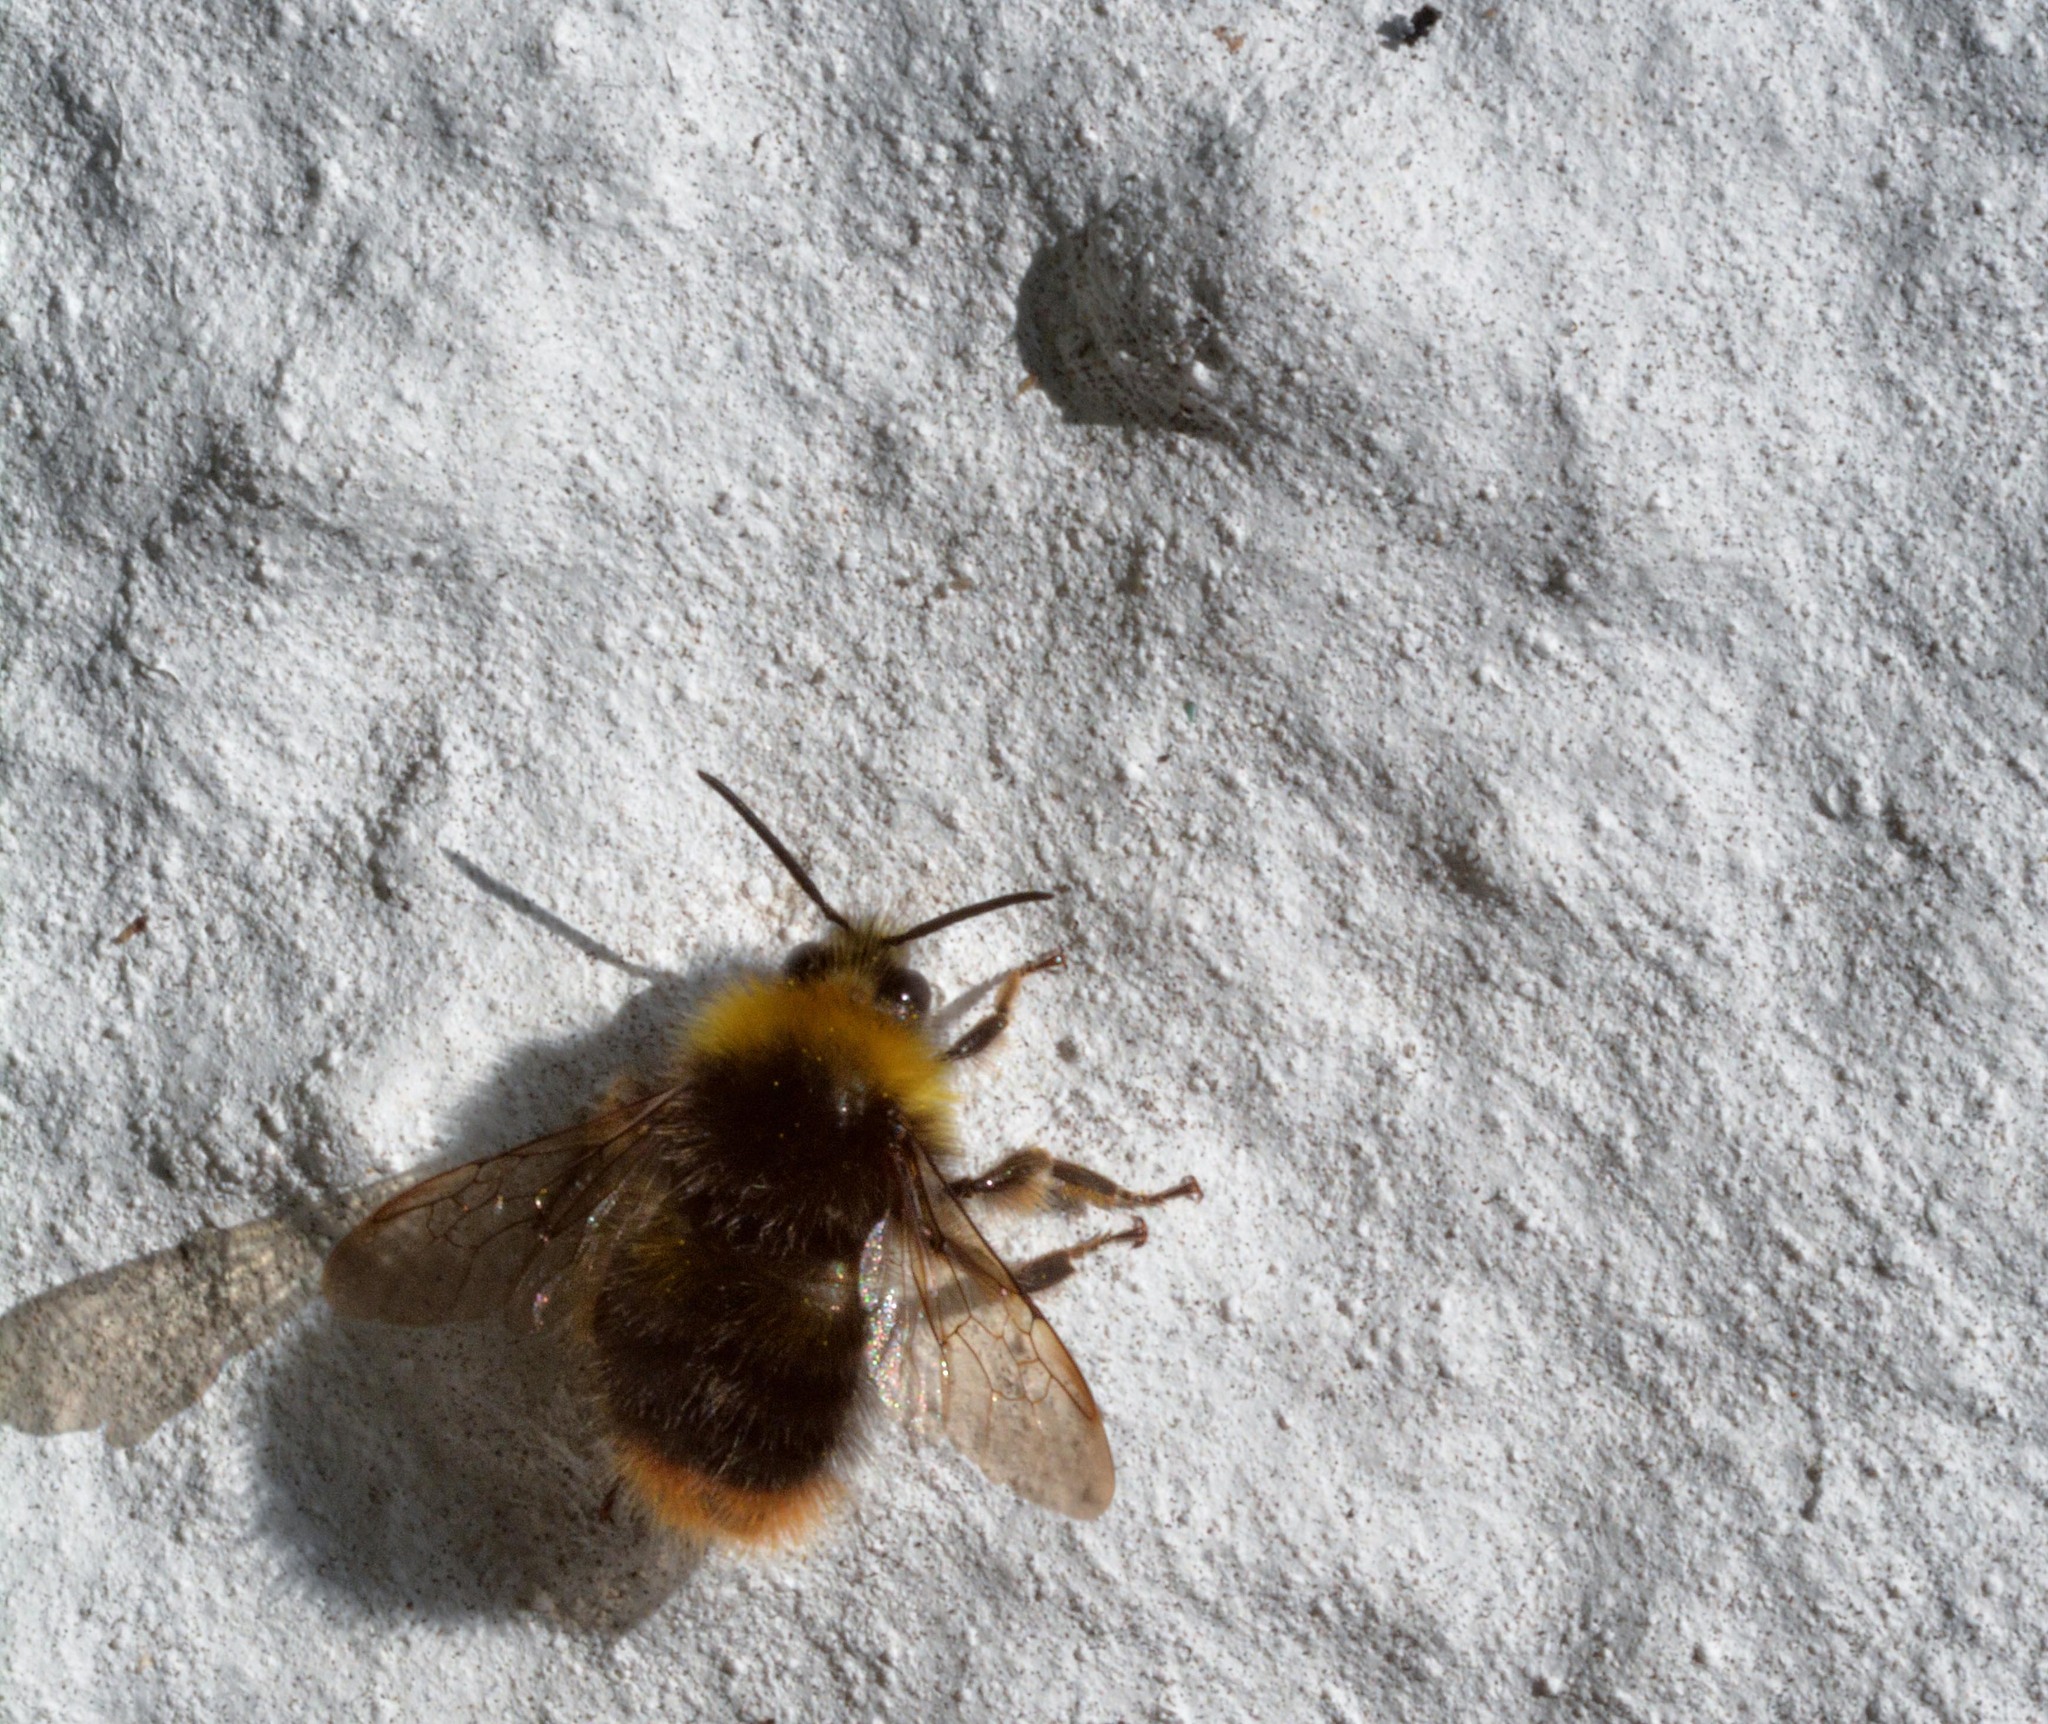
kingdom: Animalia
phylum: Arthropoda
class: Insecta
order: Hymenoptera
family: Apidae
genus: Bombus
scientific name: Bombus pratorum
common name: Early humble-bee
